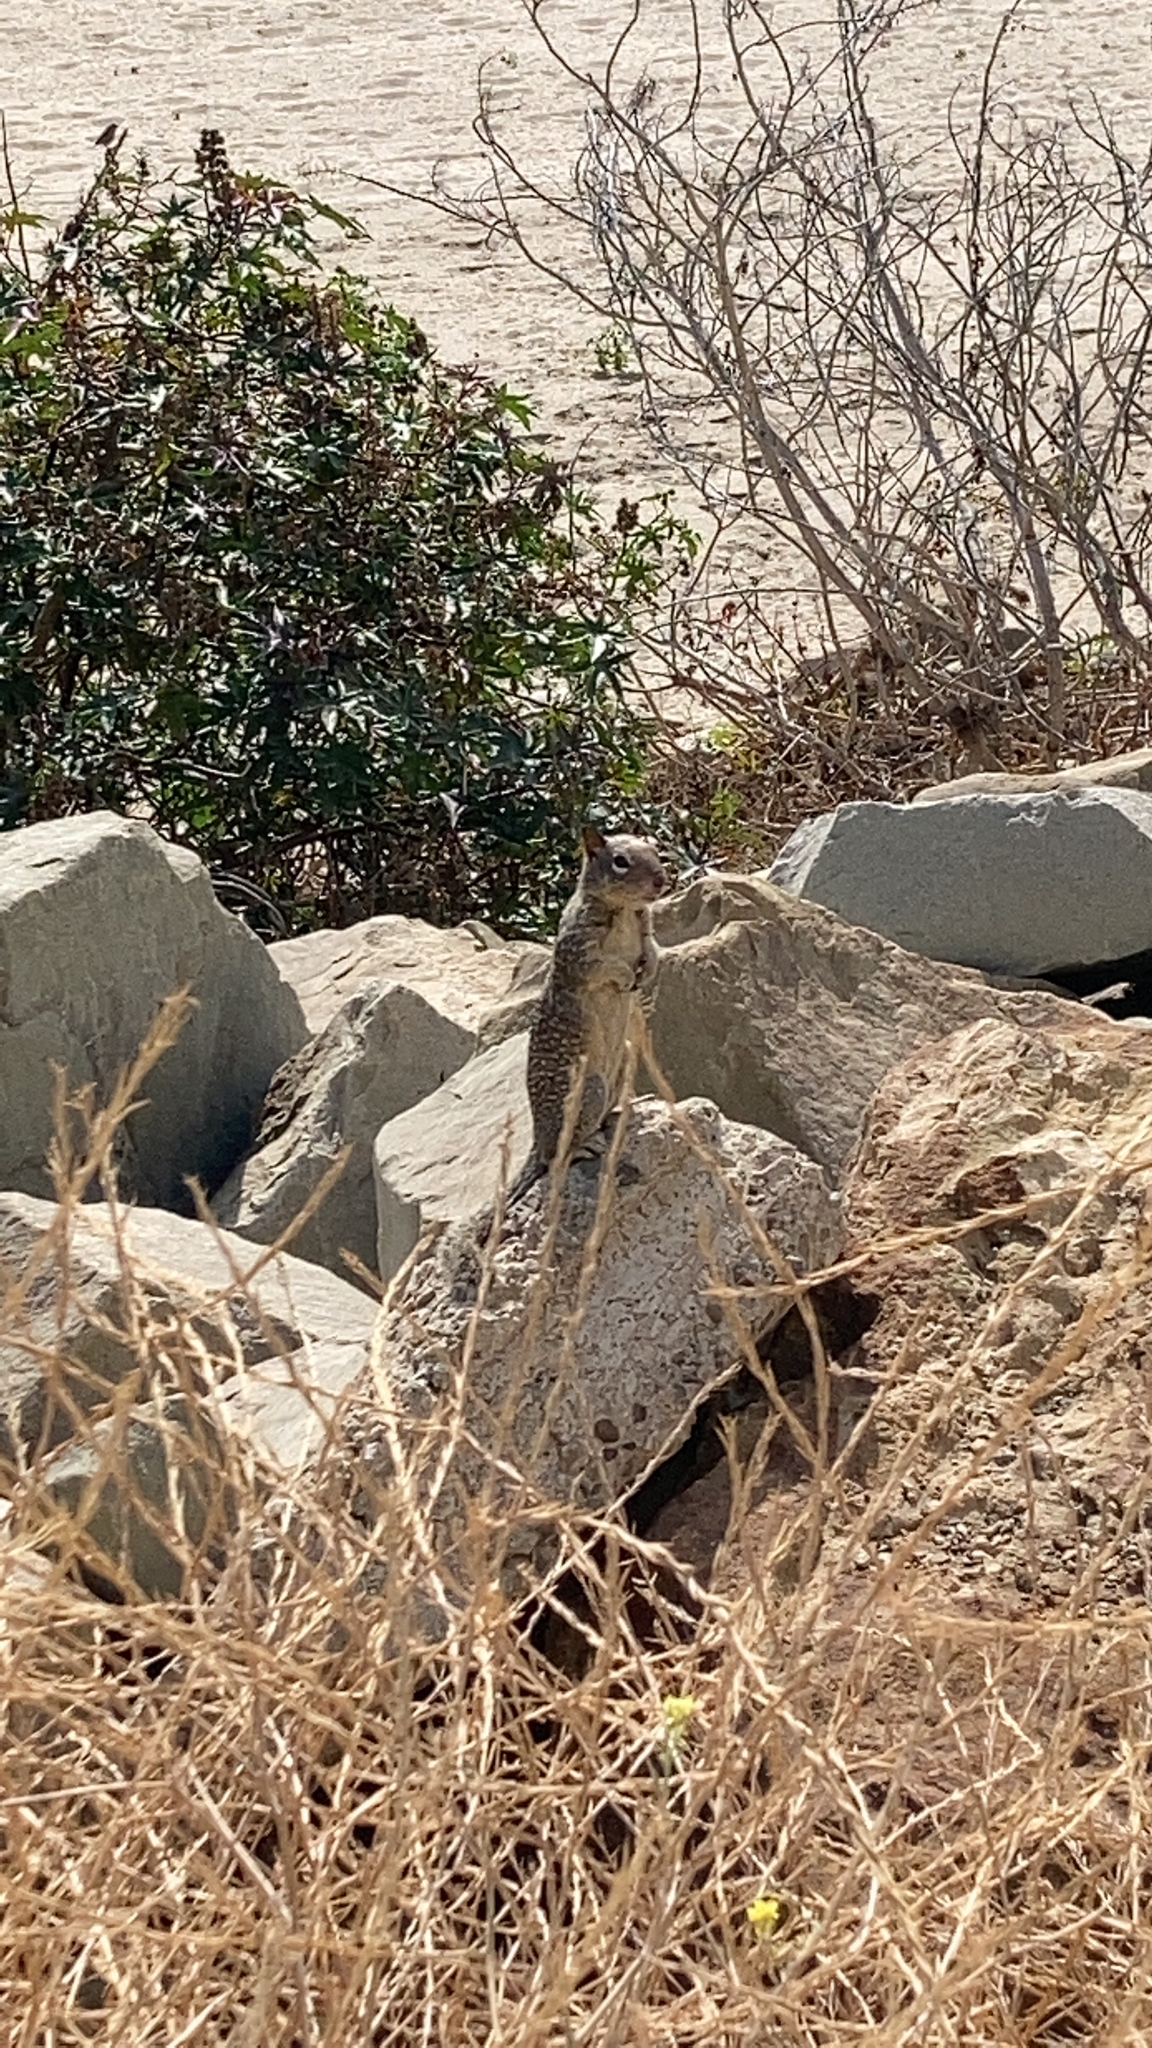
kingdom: Animalia
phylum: Chordata
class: Mammalia
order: Rodentia
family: Sciuridae
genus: Otospermophilus
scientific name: Otospermophilus beecheyi
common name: California ground squirrel
